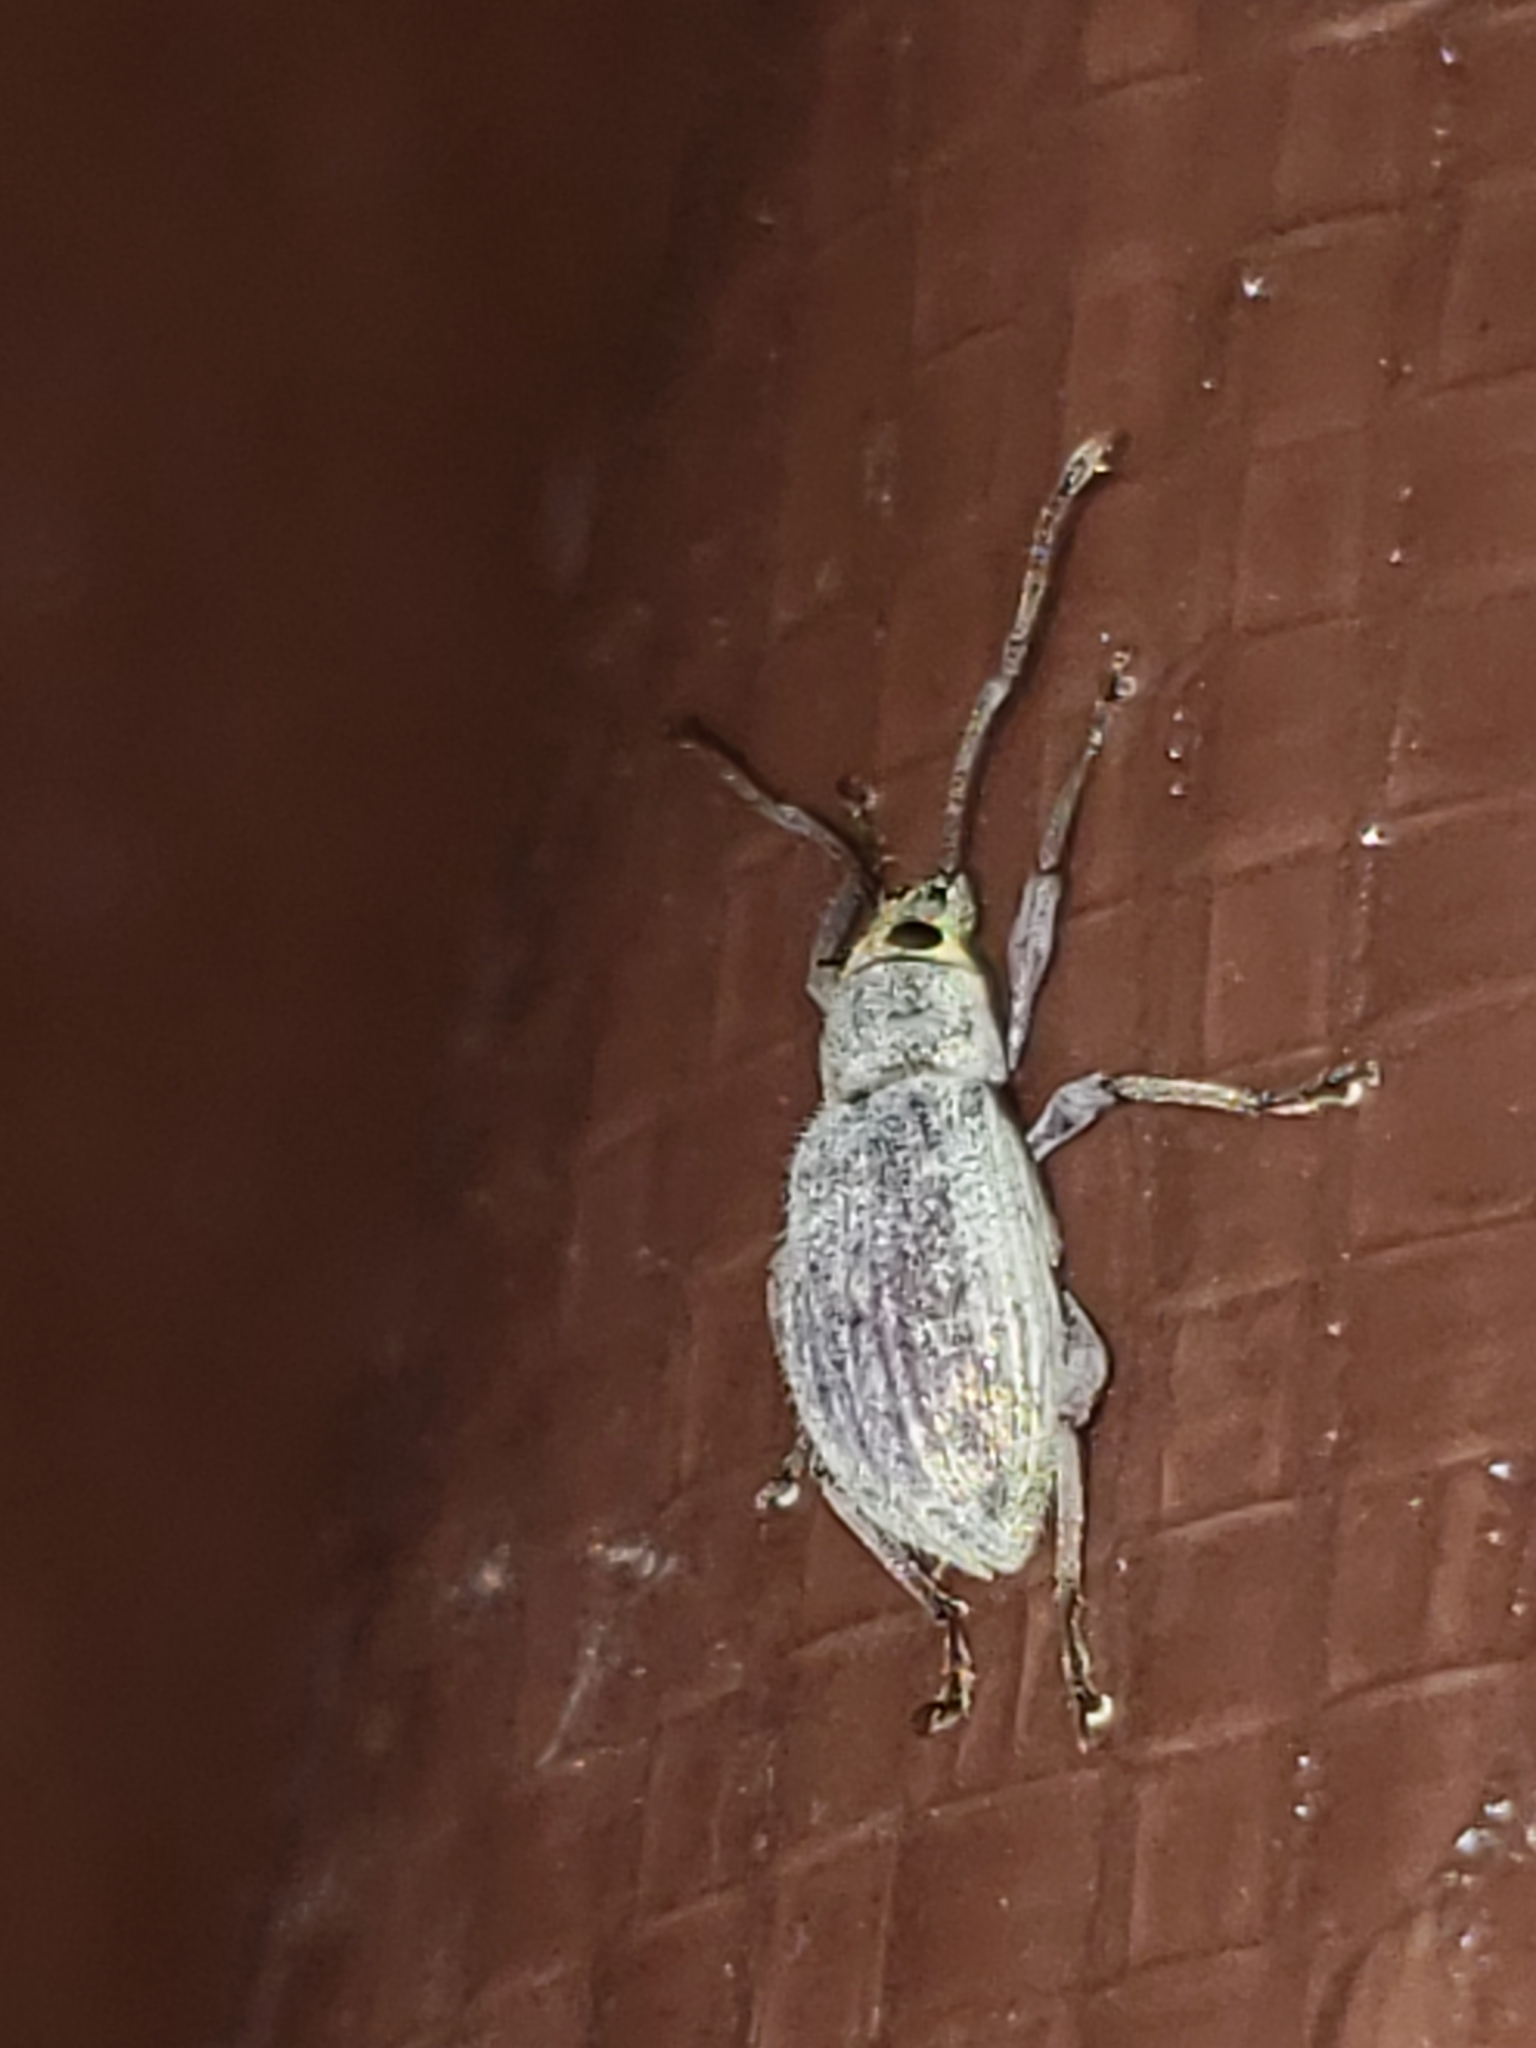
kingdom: Animalia
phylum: Arthropoda
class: Insecta
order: Coleoptera
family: Curculionidae
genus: Cyrtepistomus
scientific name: Cyrtepistomus castaneus
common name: Weevil
